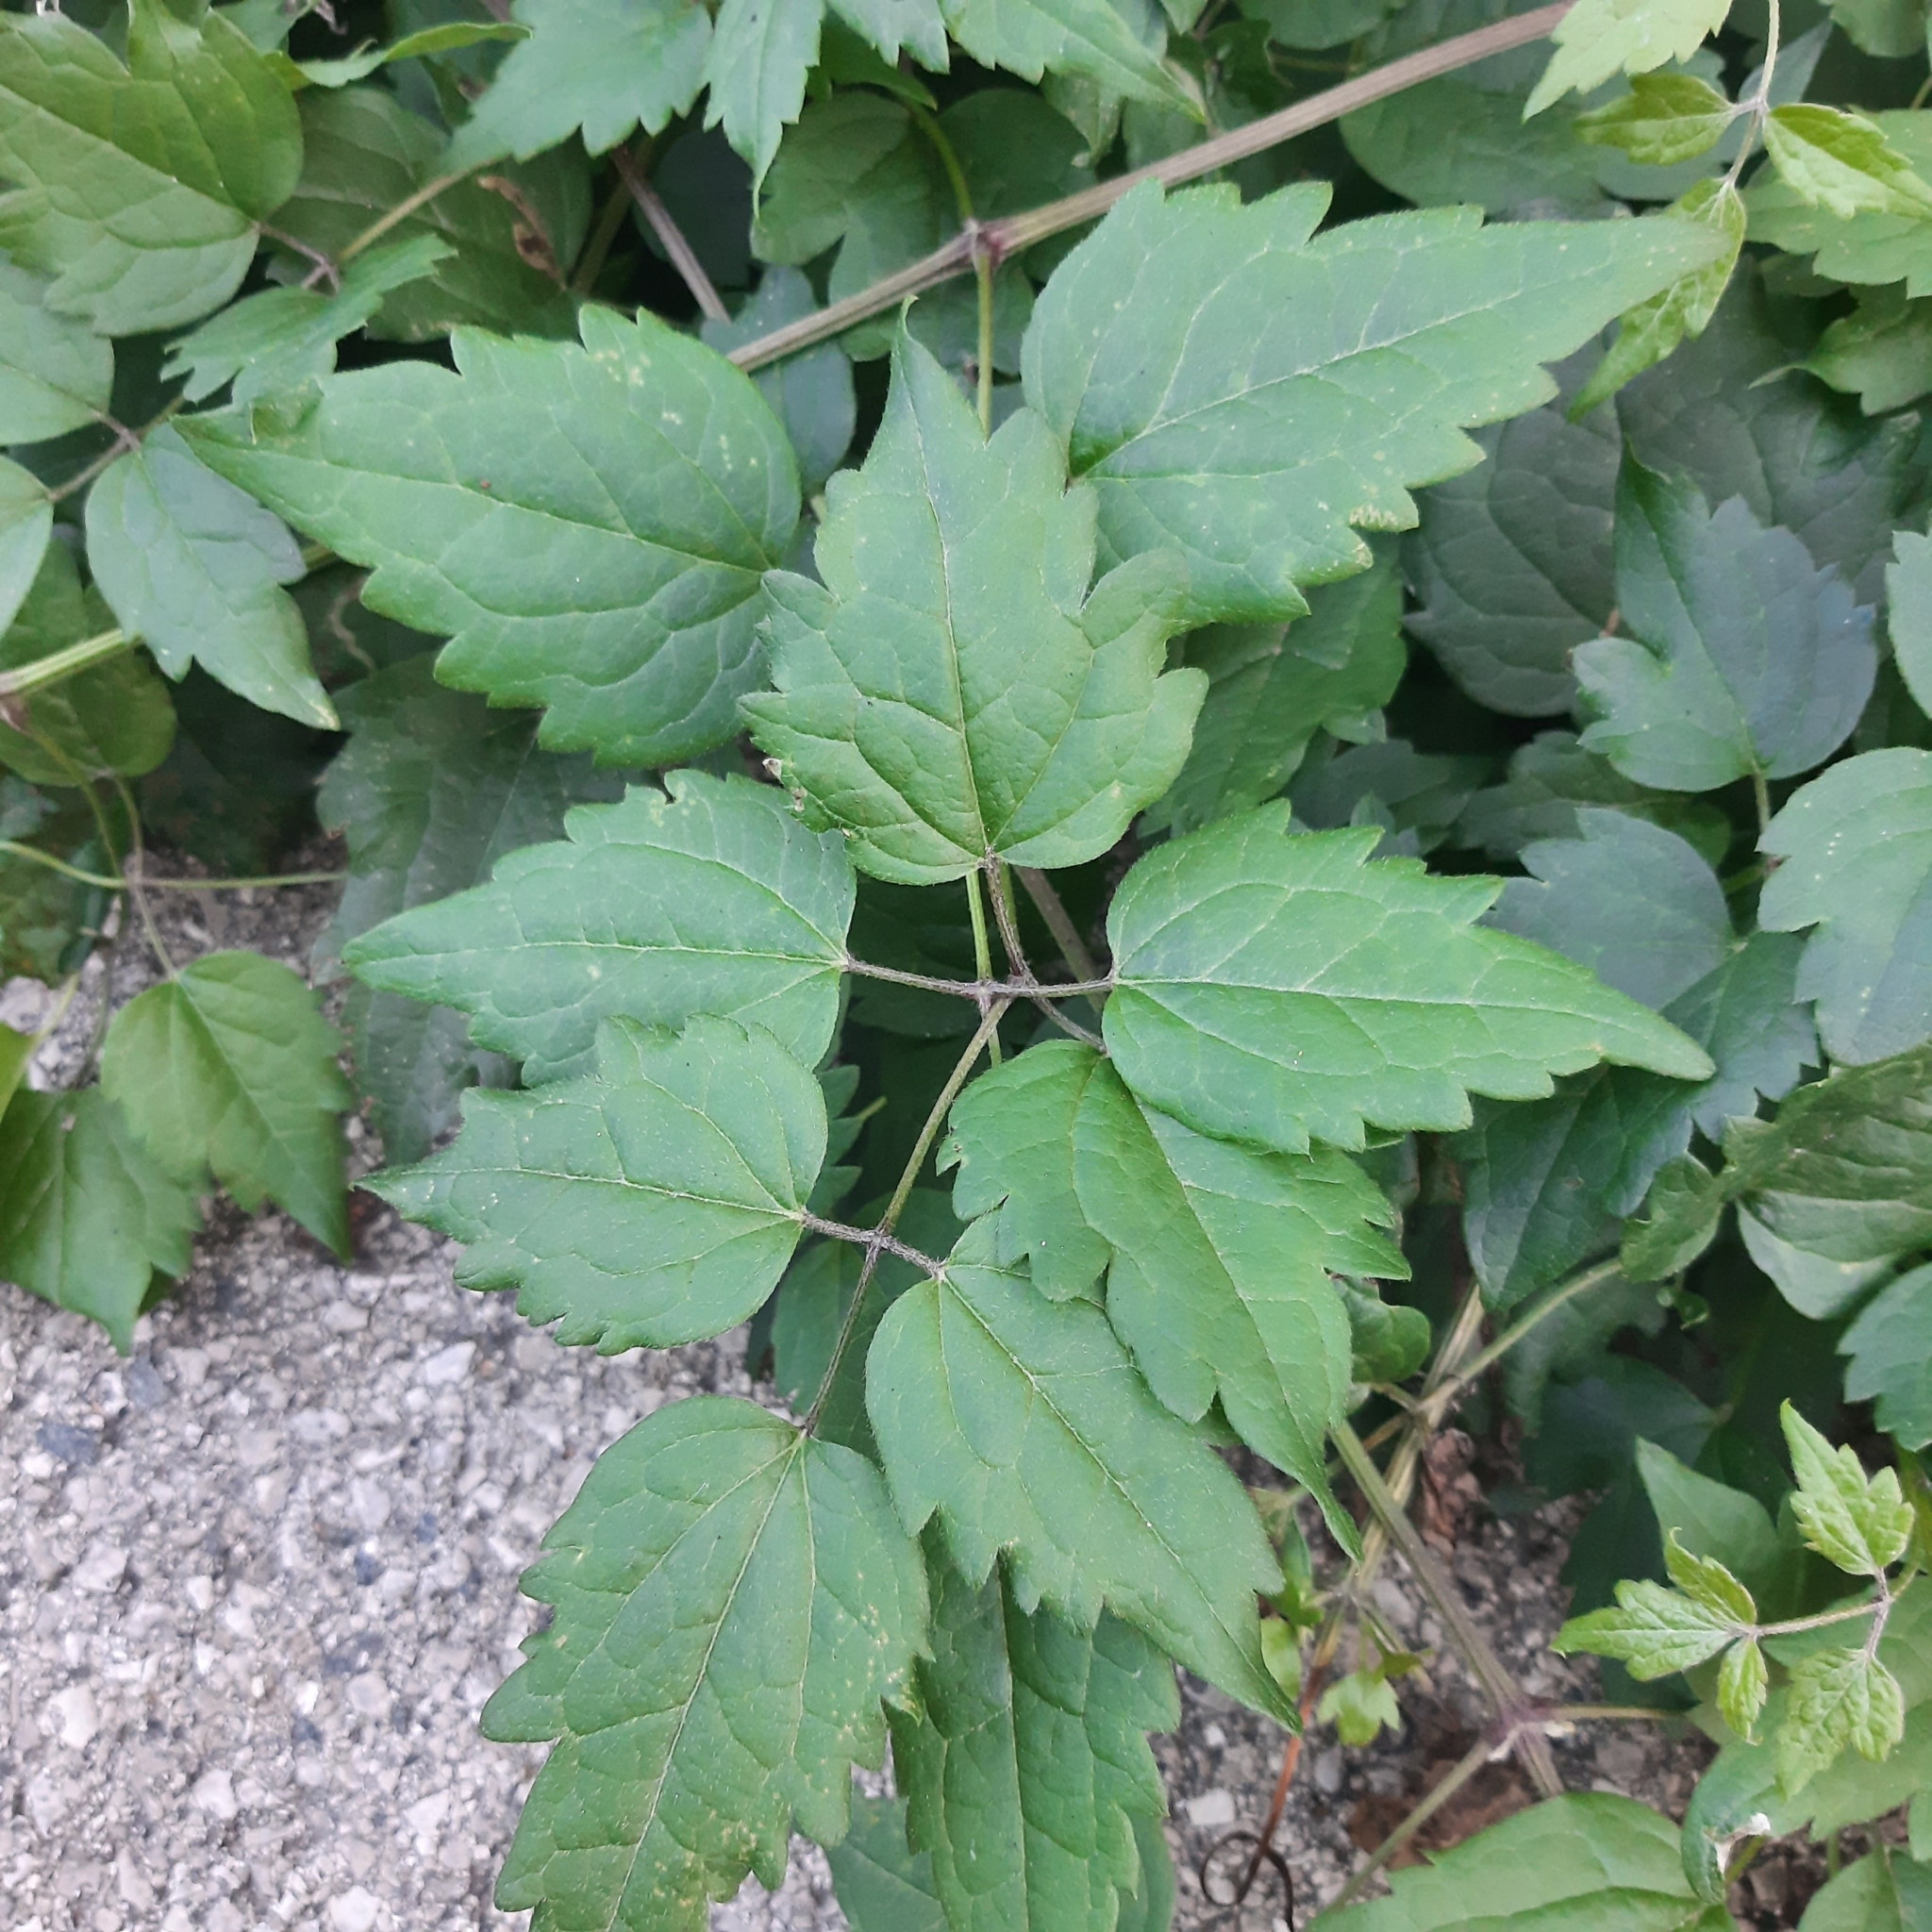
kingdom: Plantae
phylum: Tracheophyta
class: Magnoliopsida
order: Ranunculales
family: Ranunculaceae
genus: Clematis
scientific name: Clematis vitalba
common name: Evergreen clematis
